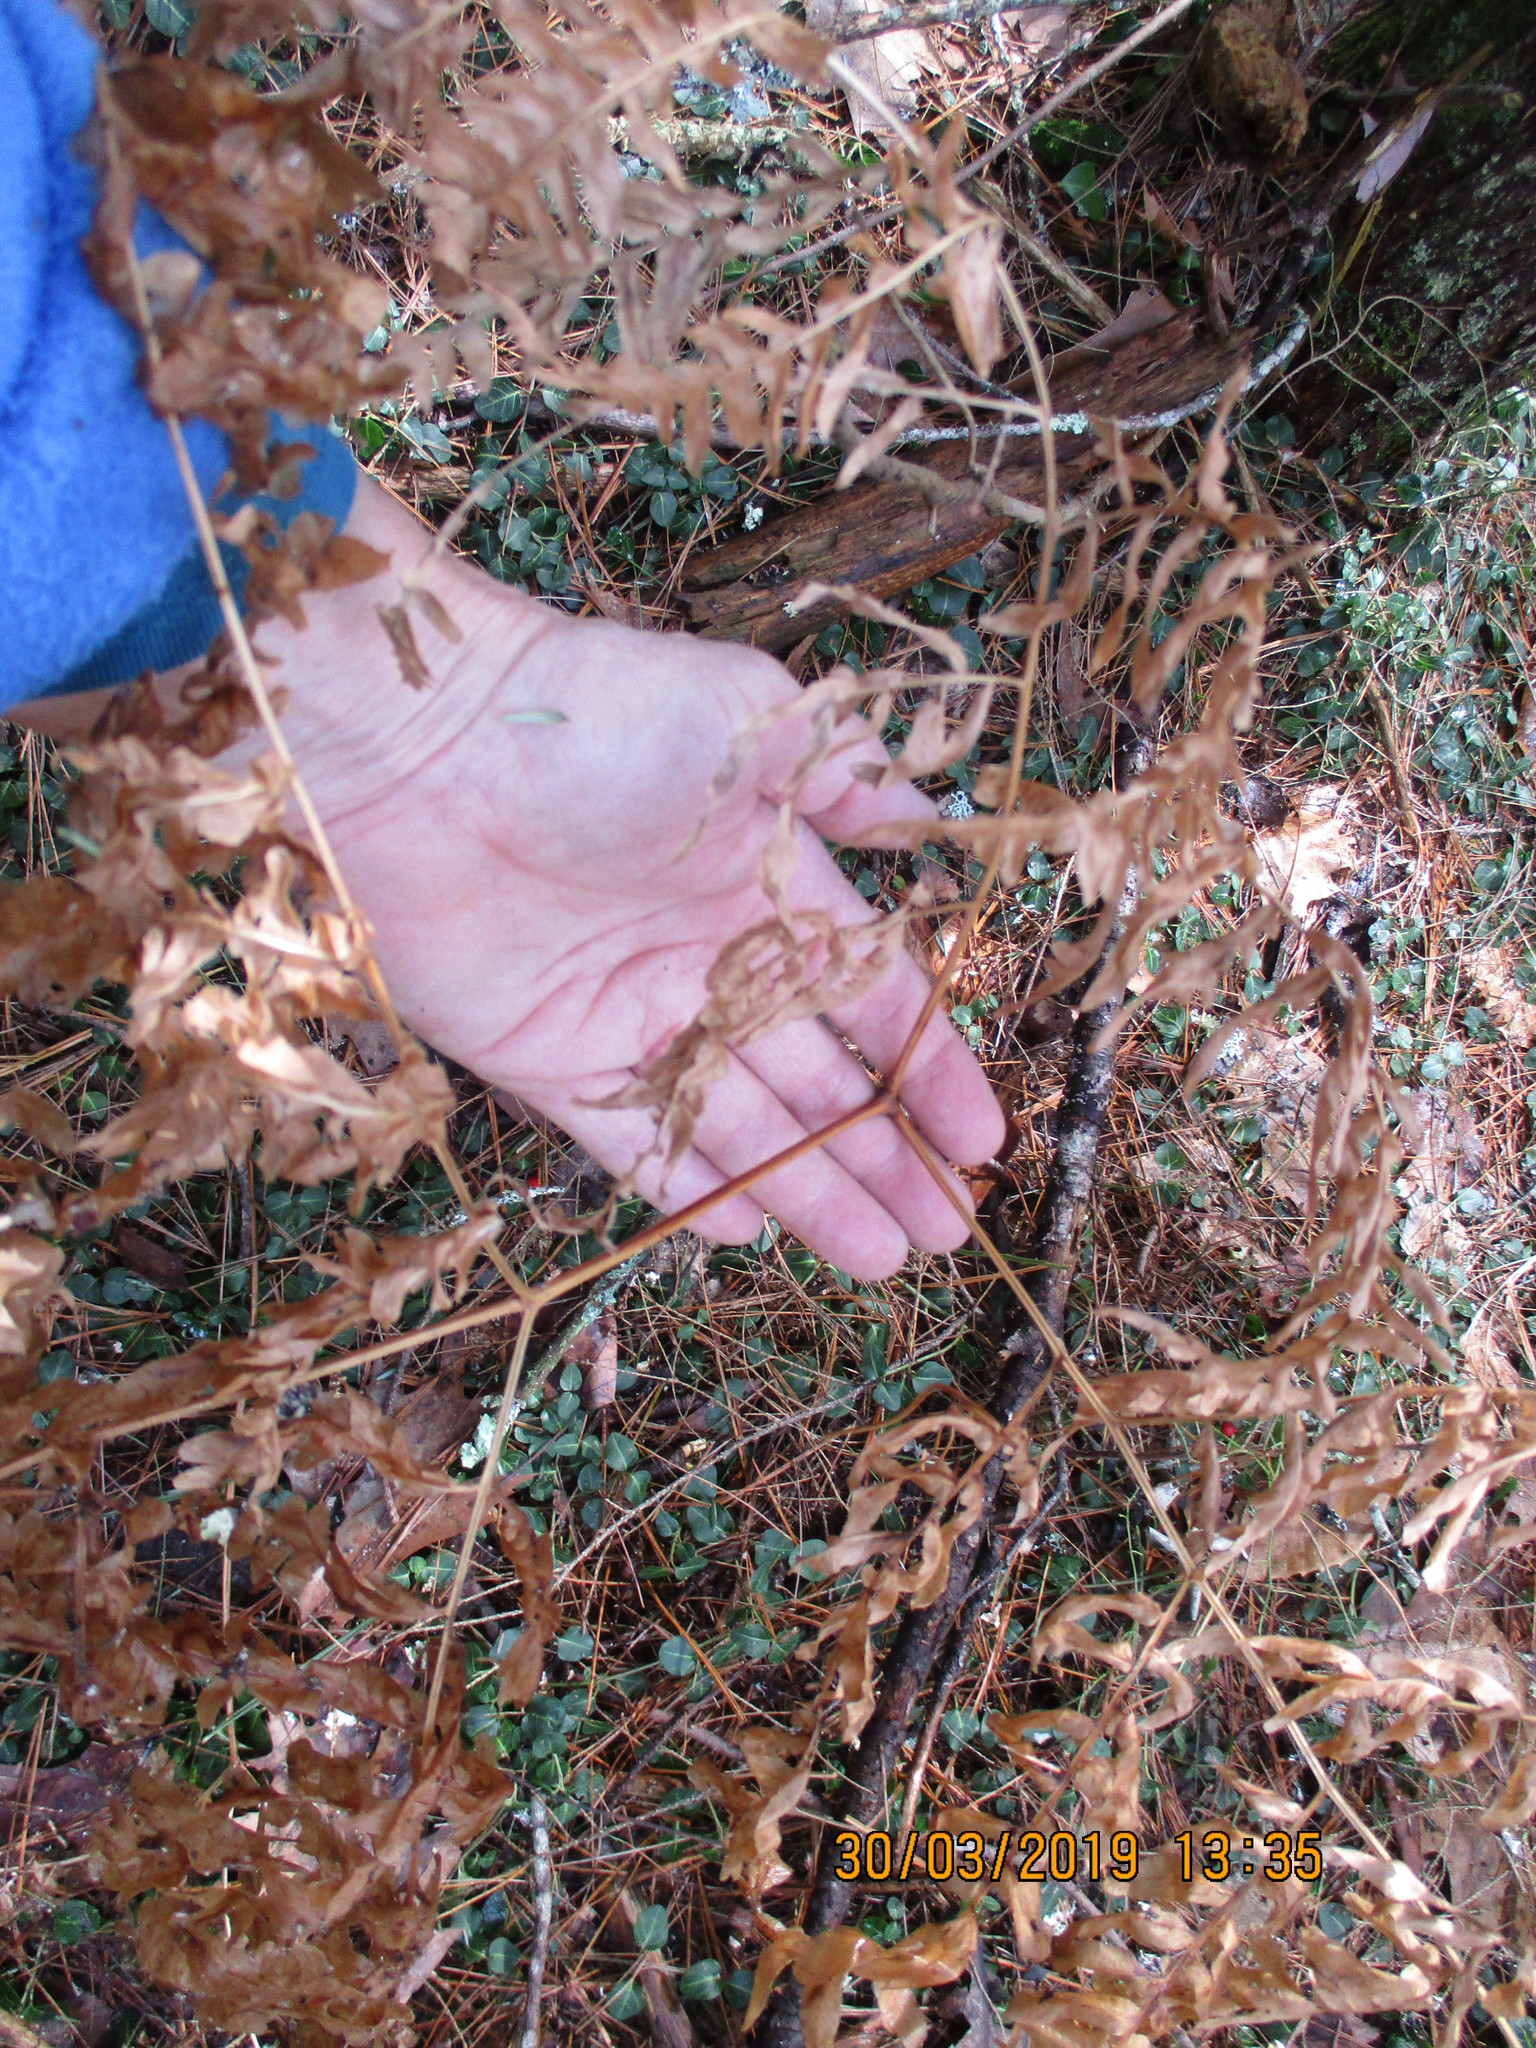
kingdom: Plantae
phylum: Tracheophyta
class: Polypodiopsida
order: Polypodiales
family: Dennstaedtiaceae
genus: Pteridium
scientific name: Pteridium aquilinum
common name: Bracken
